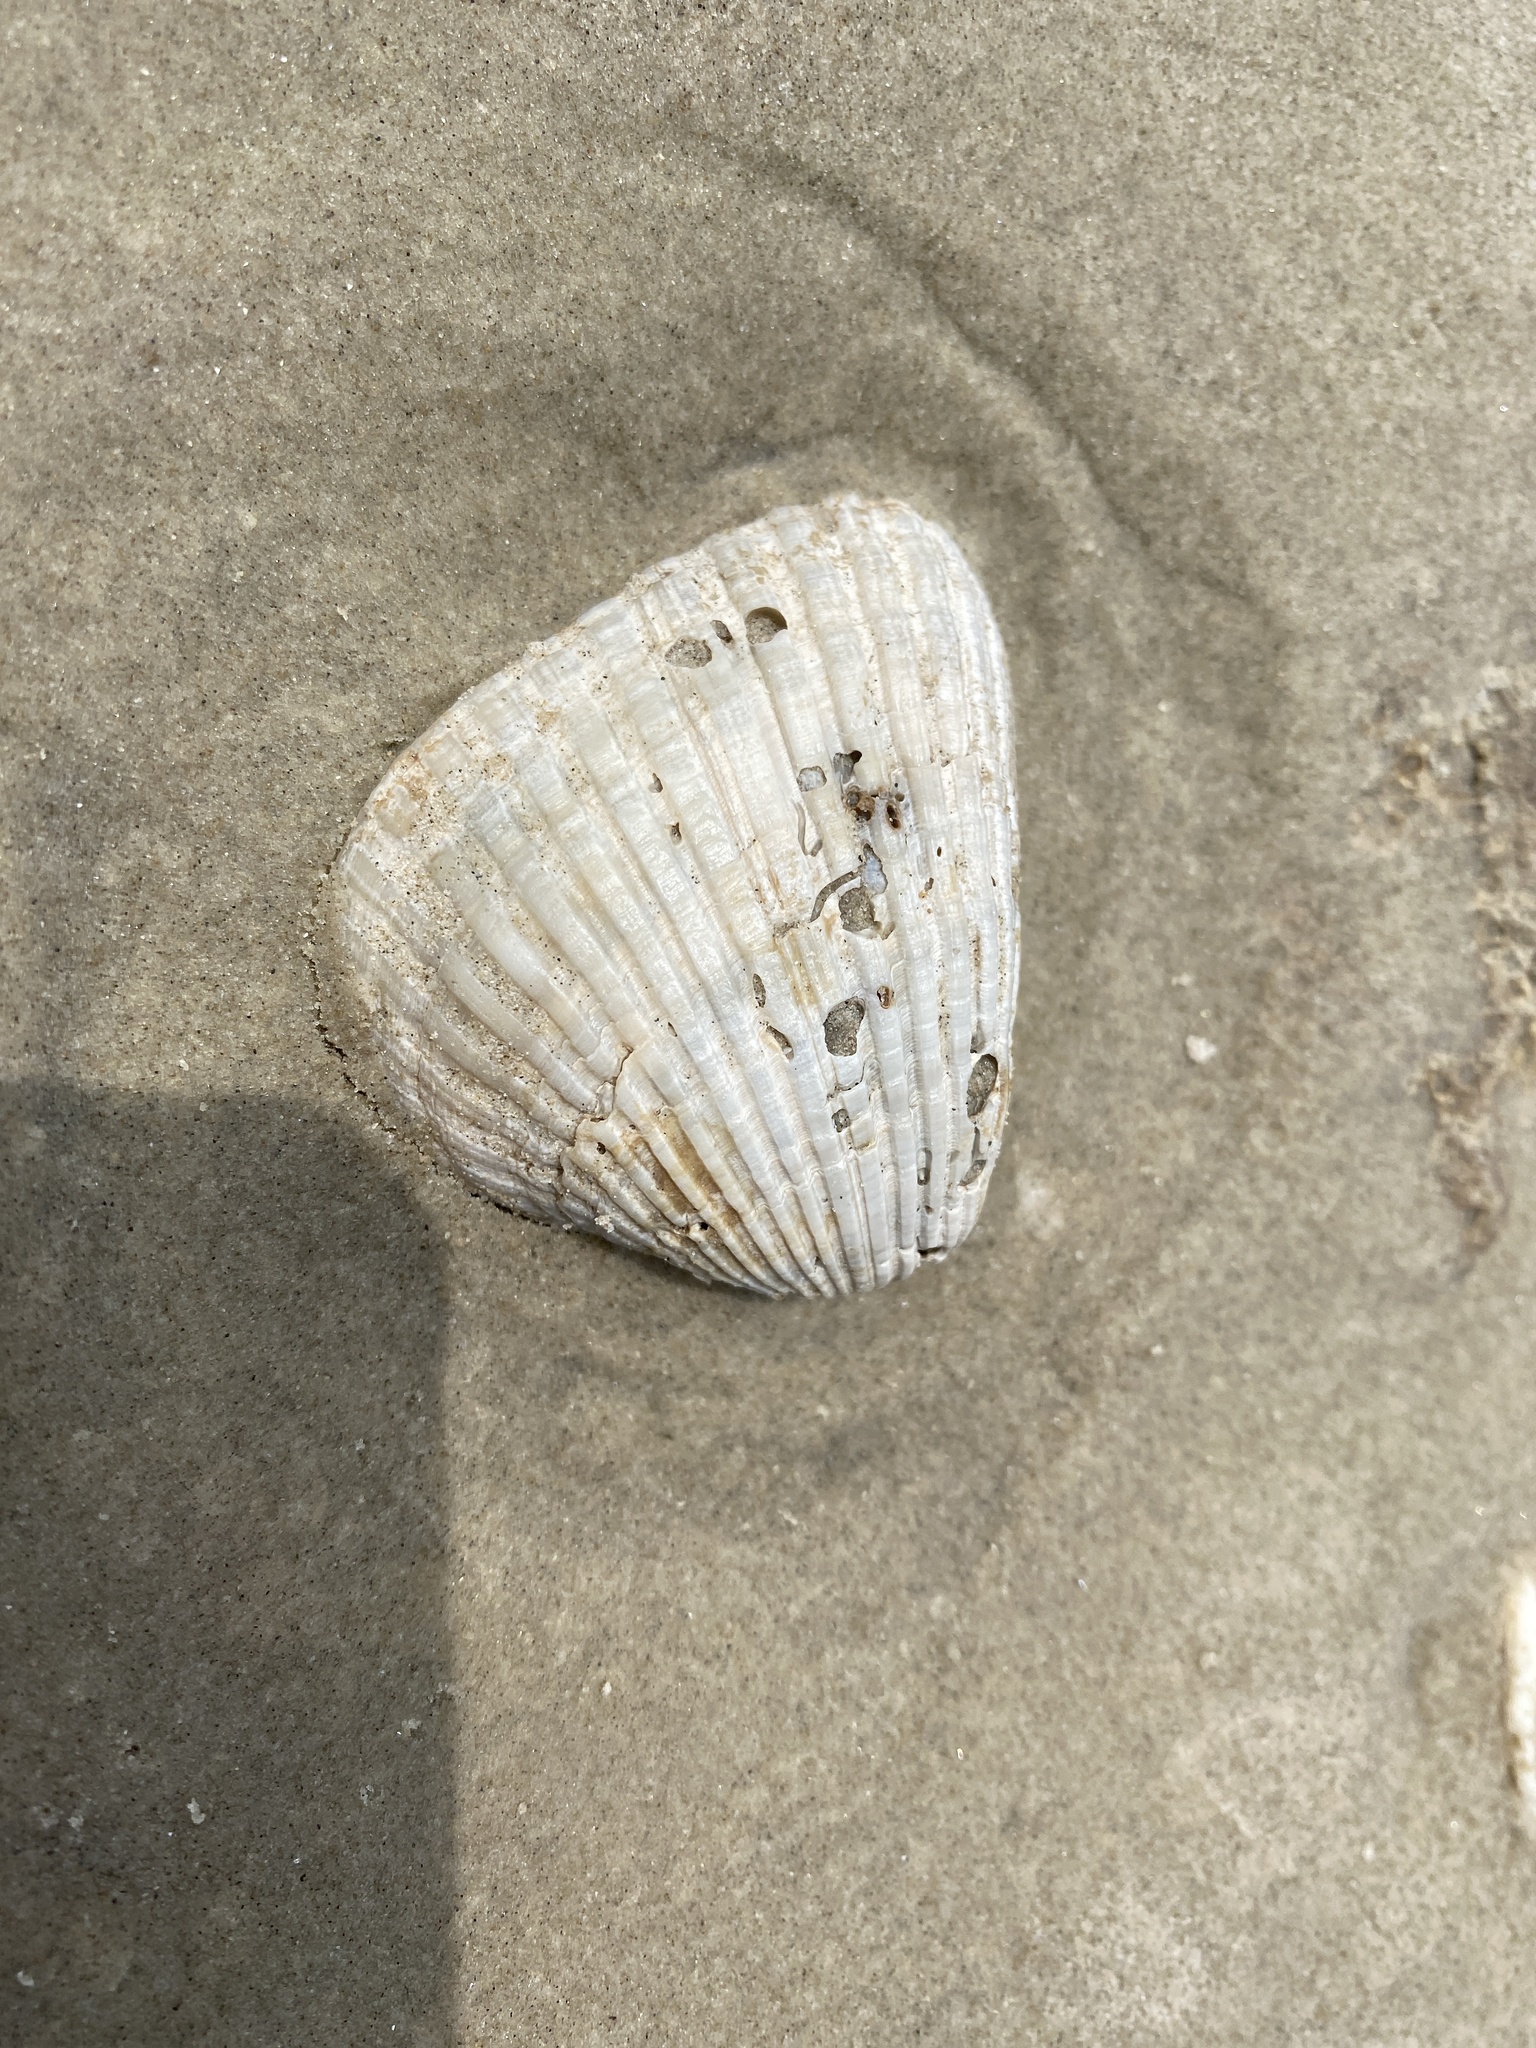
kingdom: Animalia
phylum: Mollusca
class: Bivalvia
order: Arcida
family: Noetiidae
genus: Noetia
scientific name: Noetia ponderosa
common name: Ponderous ark
